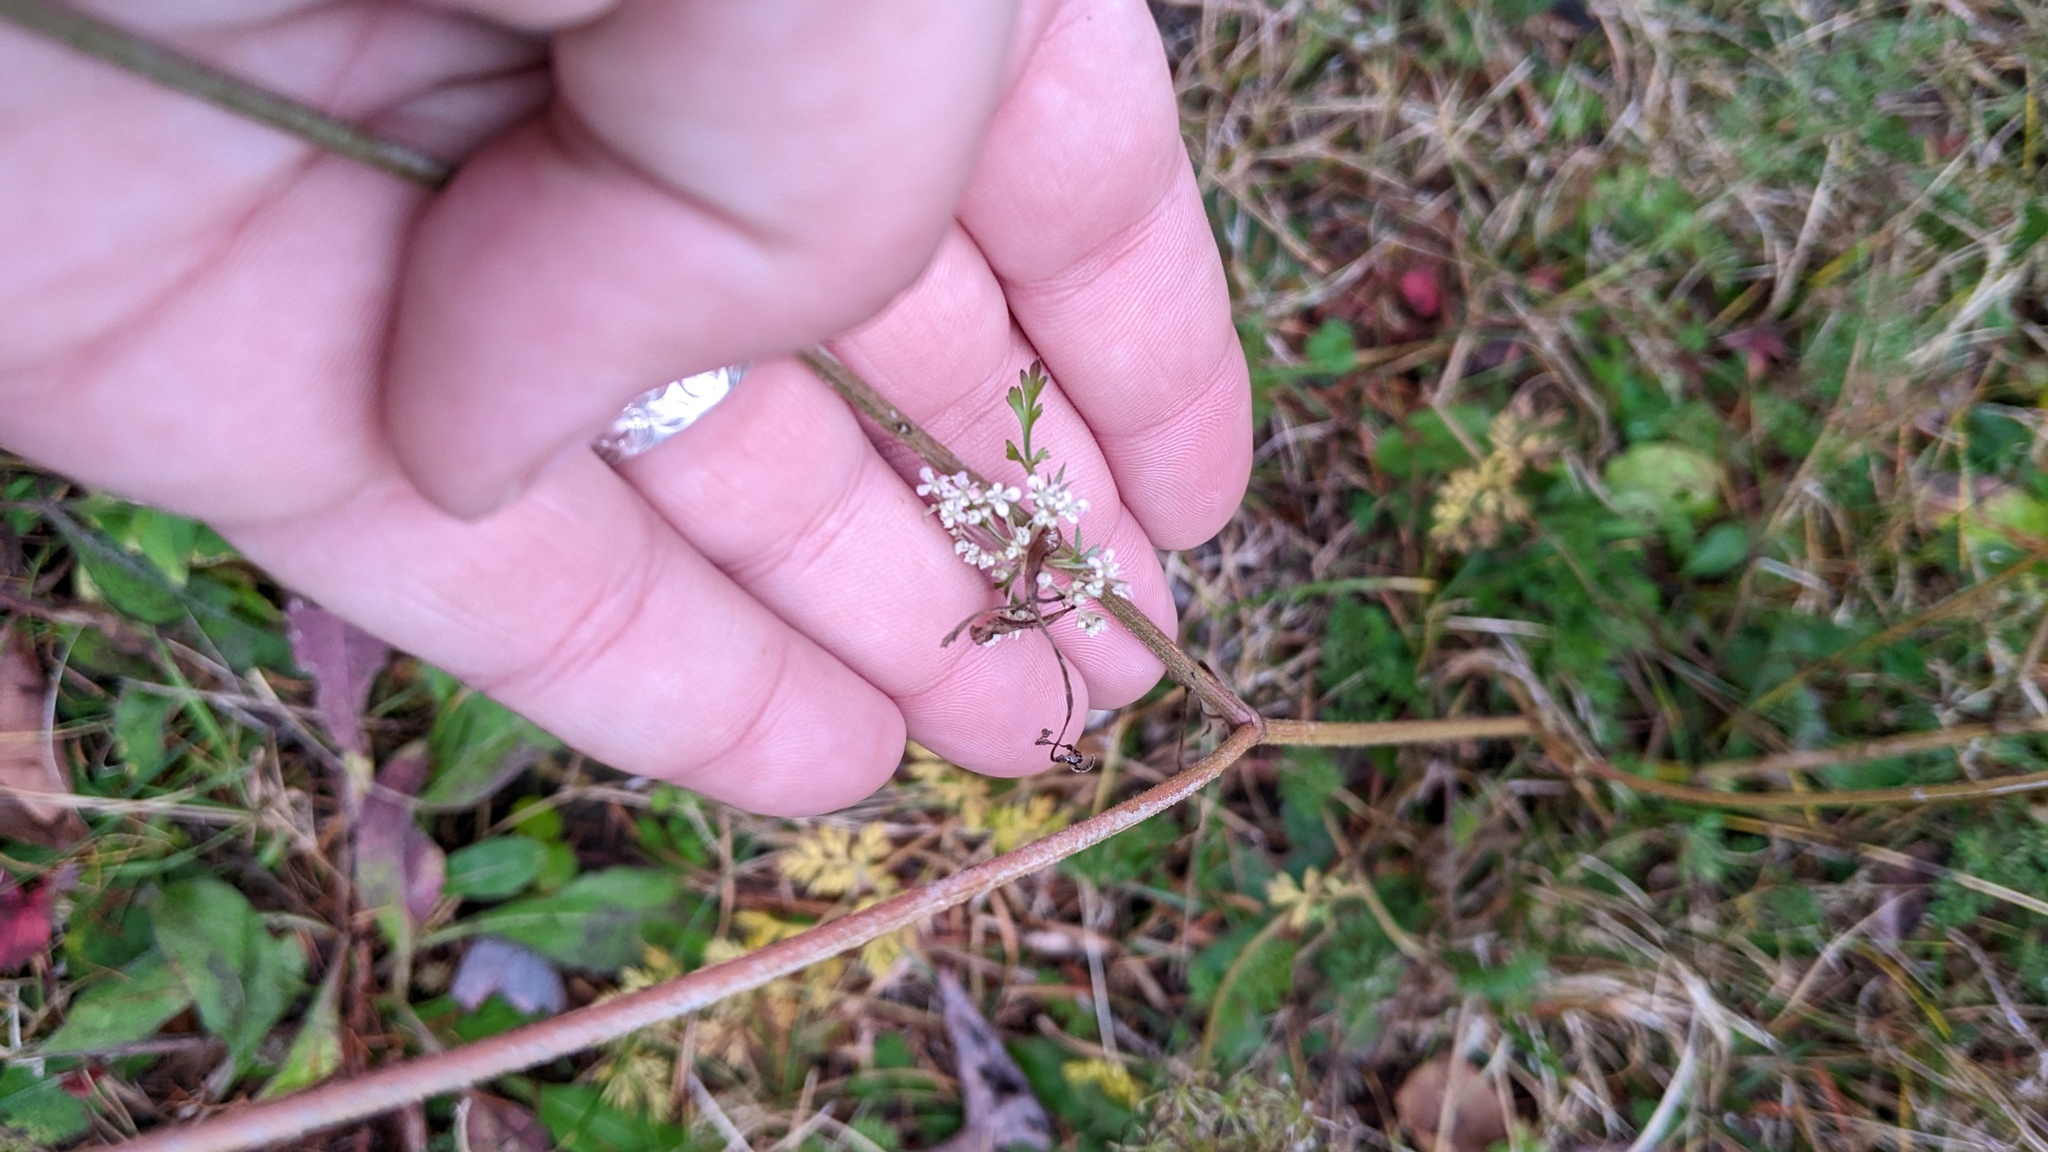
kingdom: Plantae
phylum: Tracheophyta
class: Magnoliopsida
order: Apiales
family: Apiaceae
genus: Daucus
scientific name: Daucus carota
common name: Wild carrot
